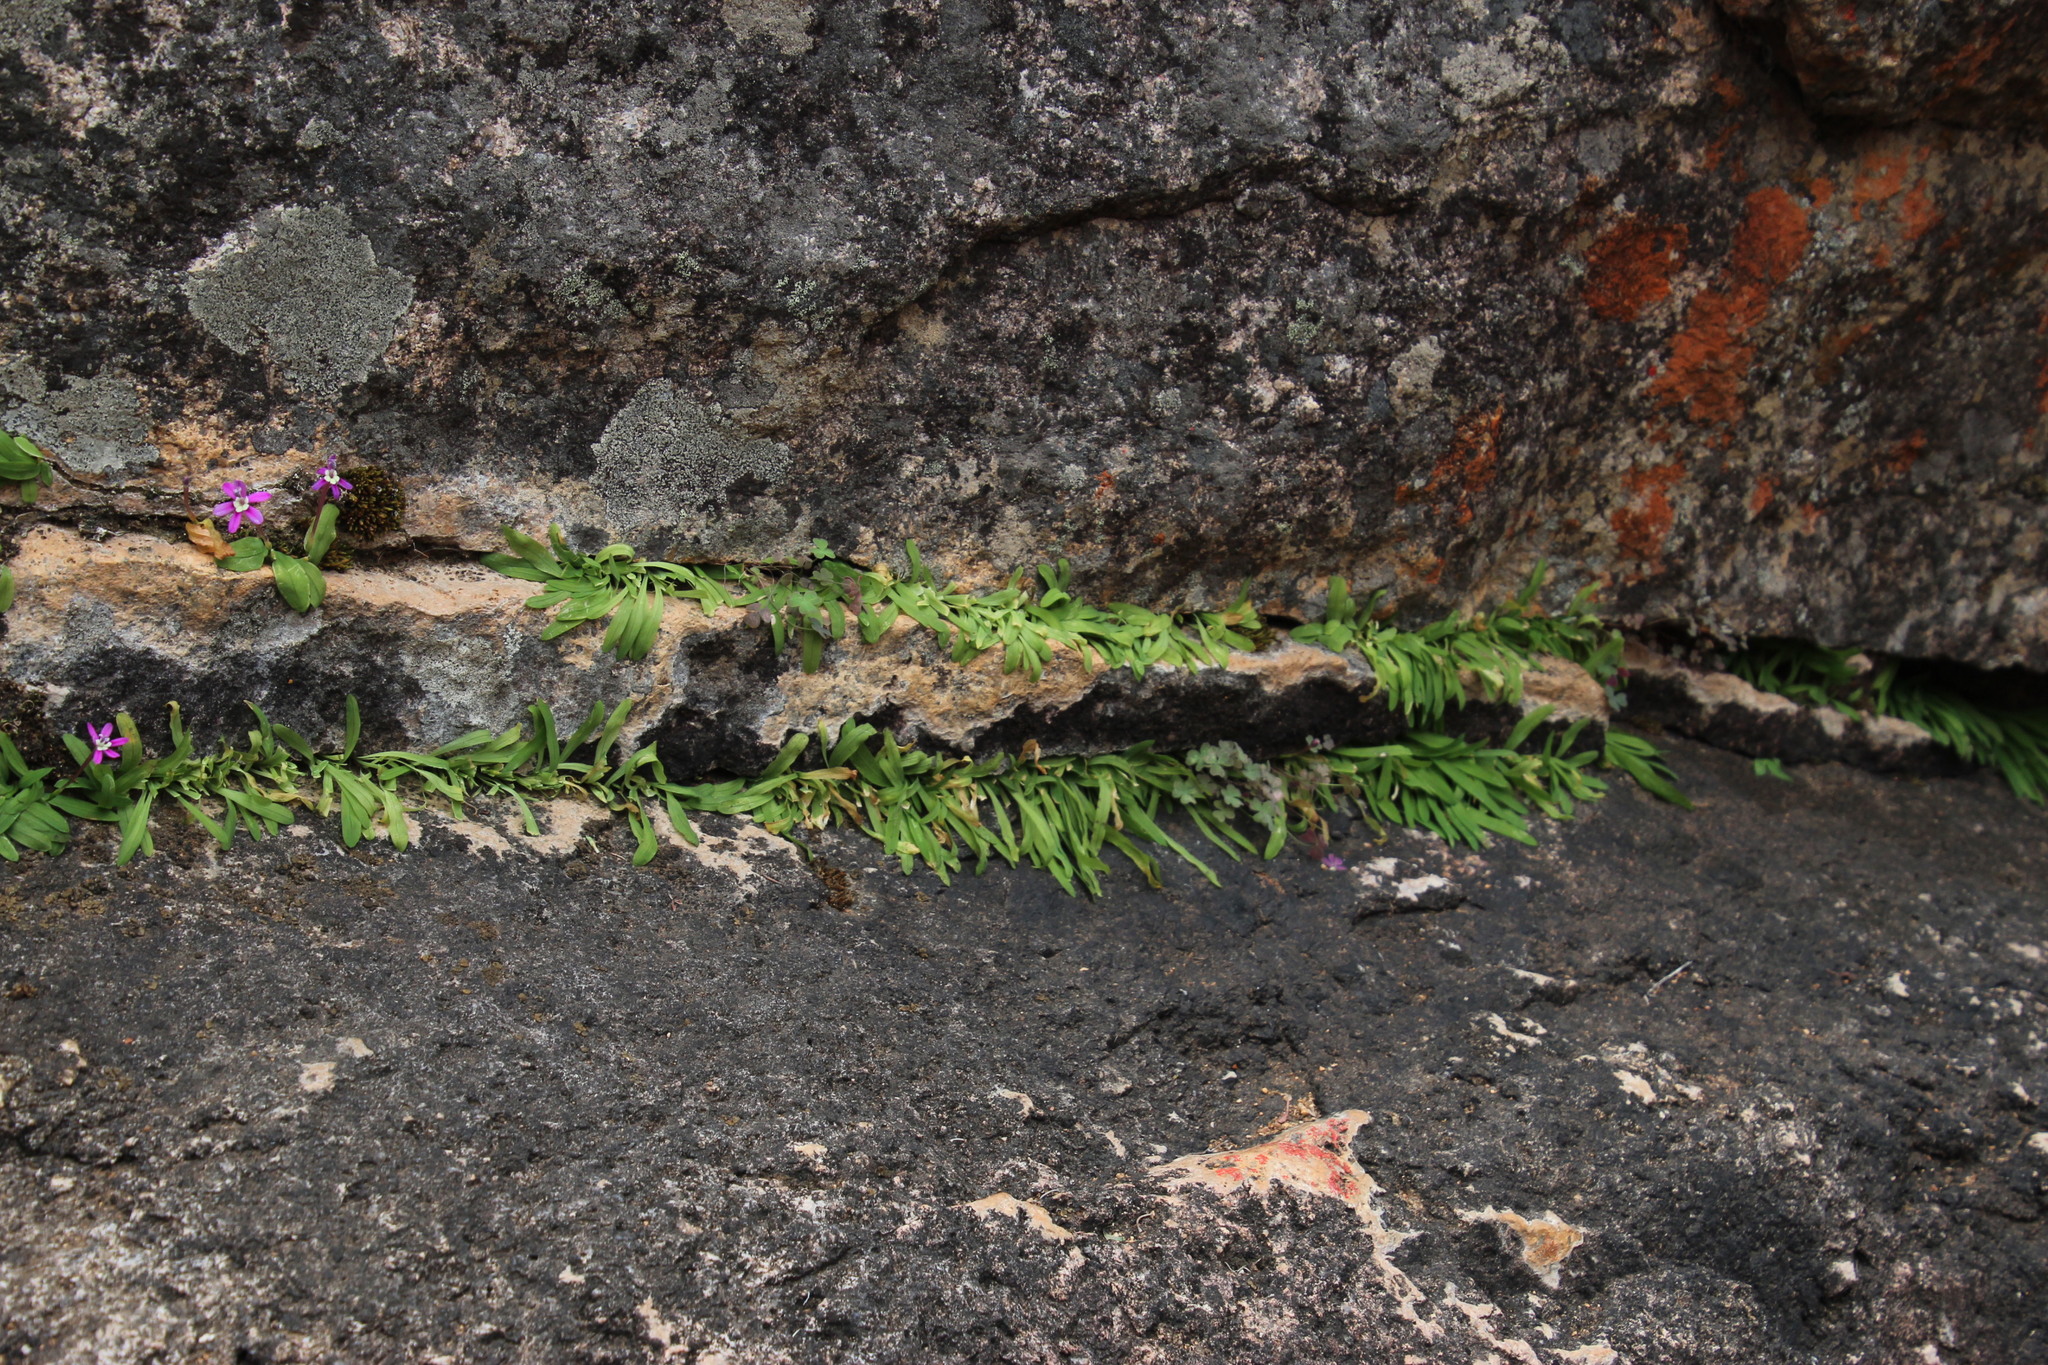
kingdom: Plantae
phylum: Tracheophyta
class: Liliopsida
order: Asparagales
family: Hypoxidaceae
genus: Pauridia
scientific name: Pauridia scullyi
